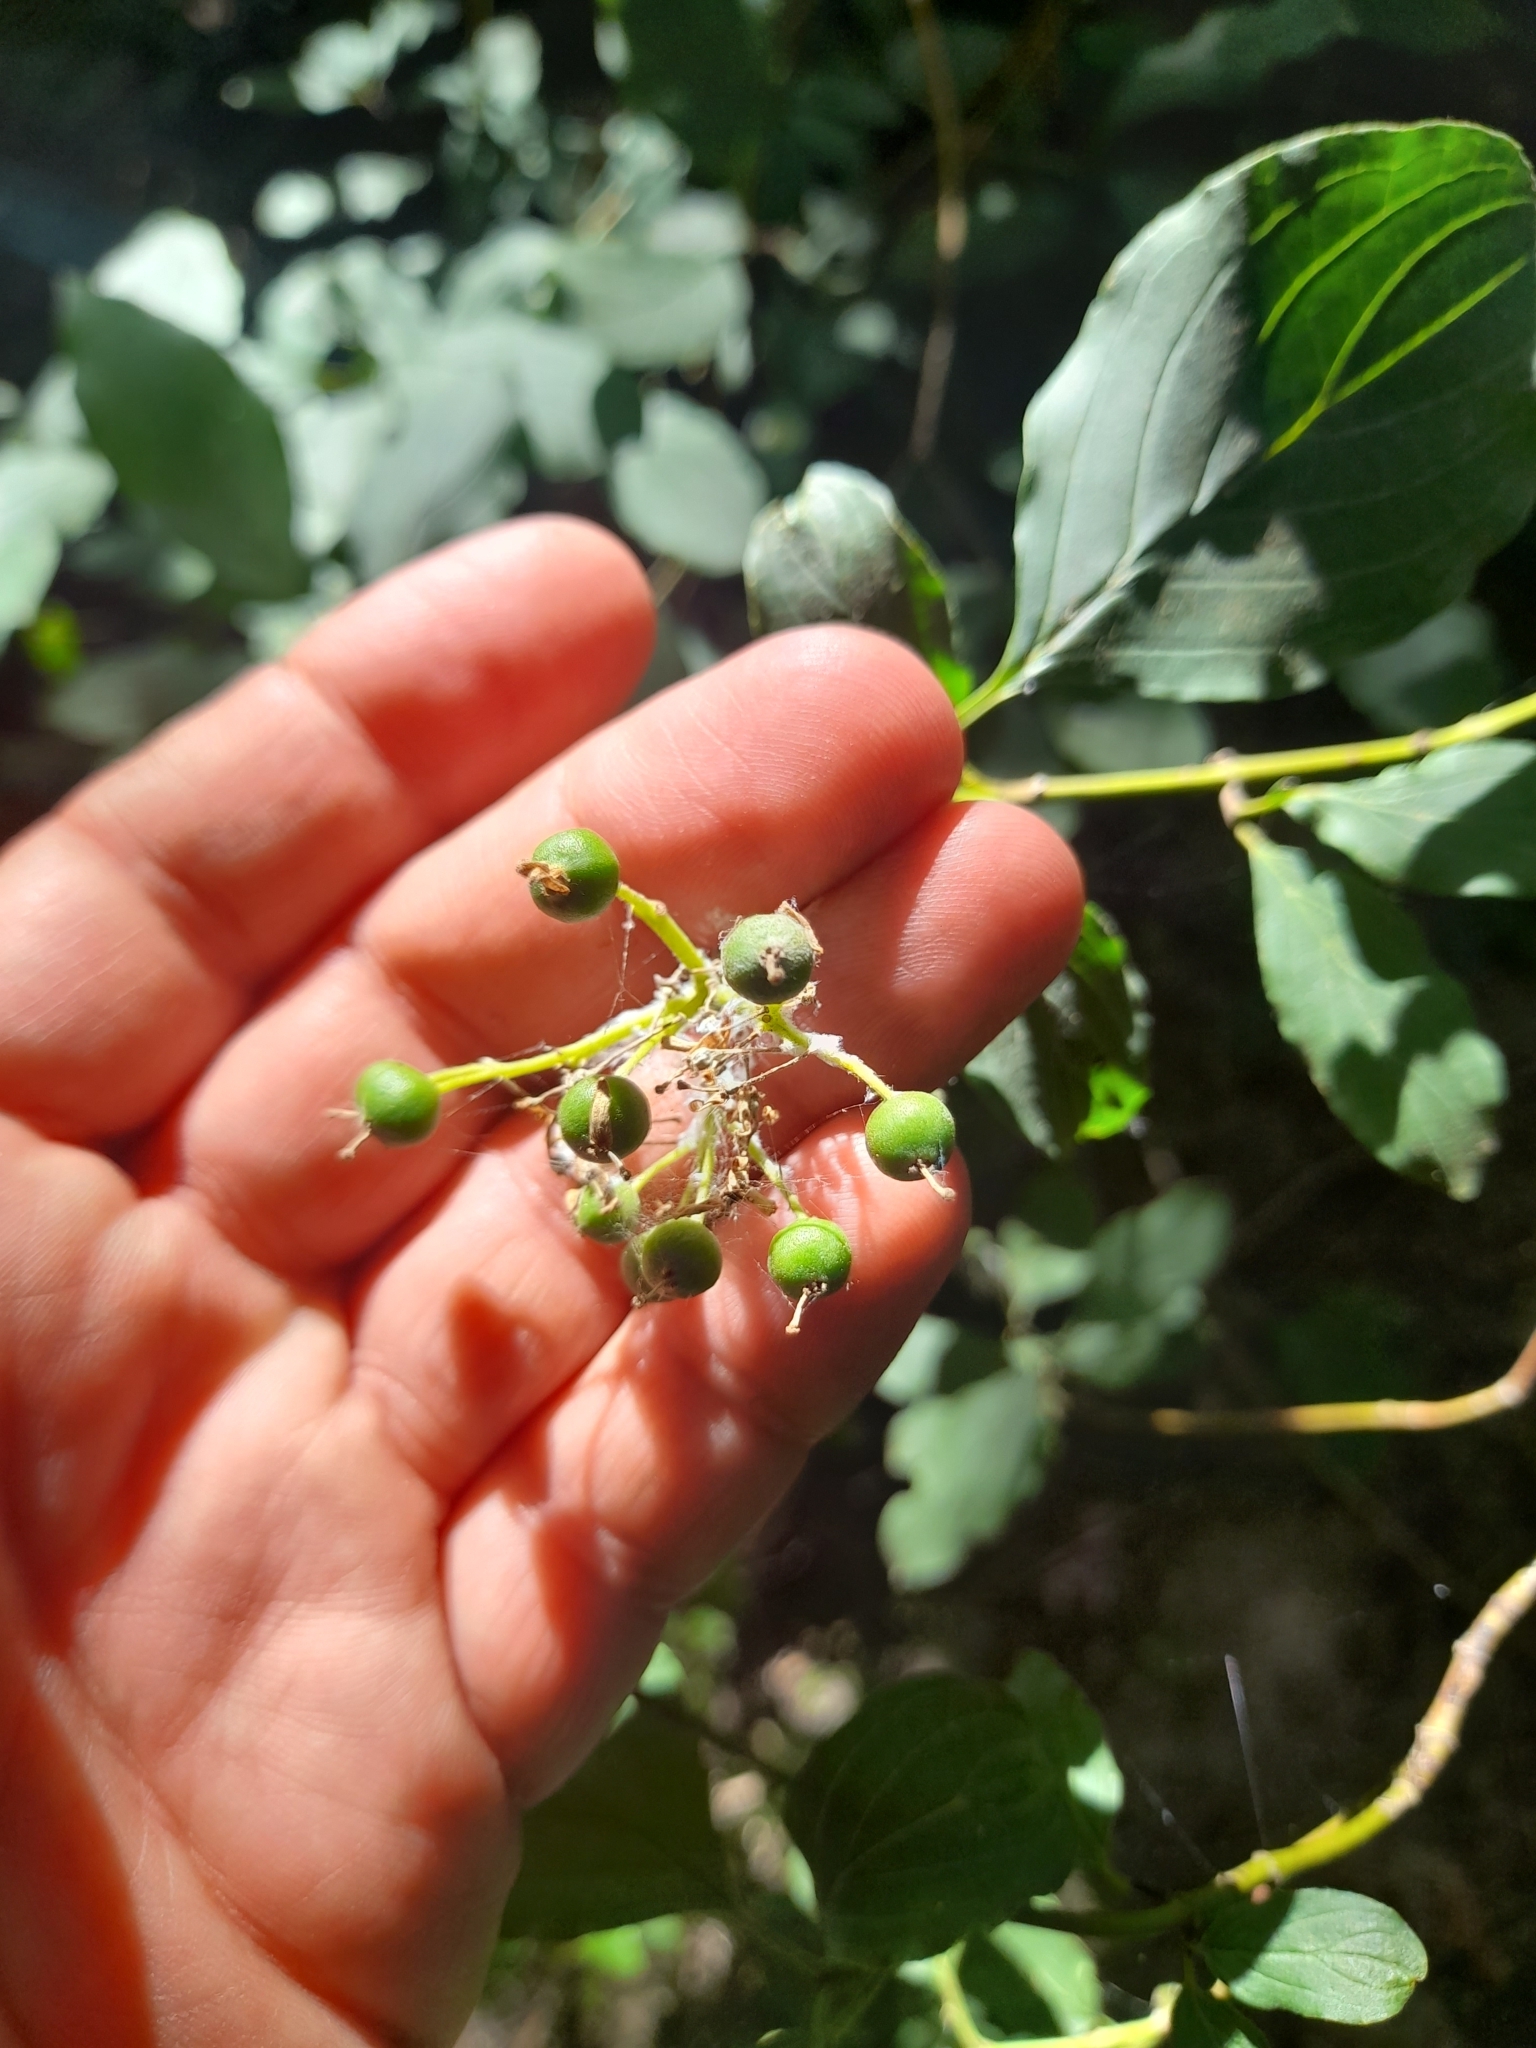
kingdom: Plantae
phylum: Tracheophyta
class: Magnoliopsida
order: Cornales
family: Cornaceae
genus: Cornus
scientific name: Cornus sanguinea
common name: Dogwood
